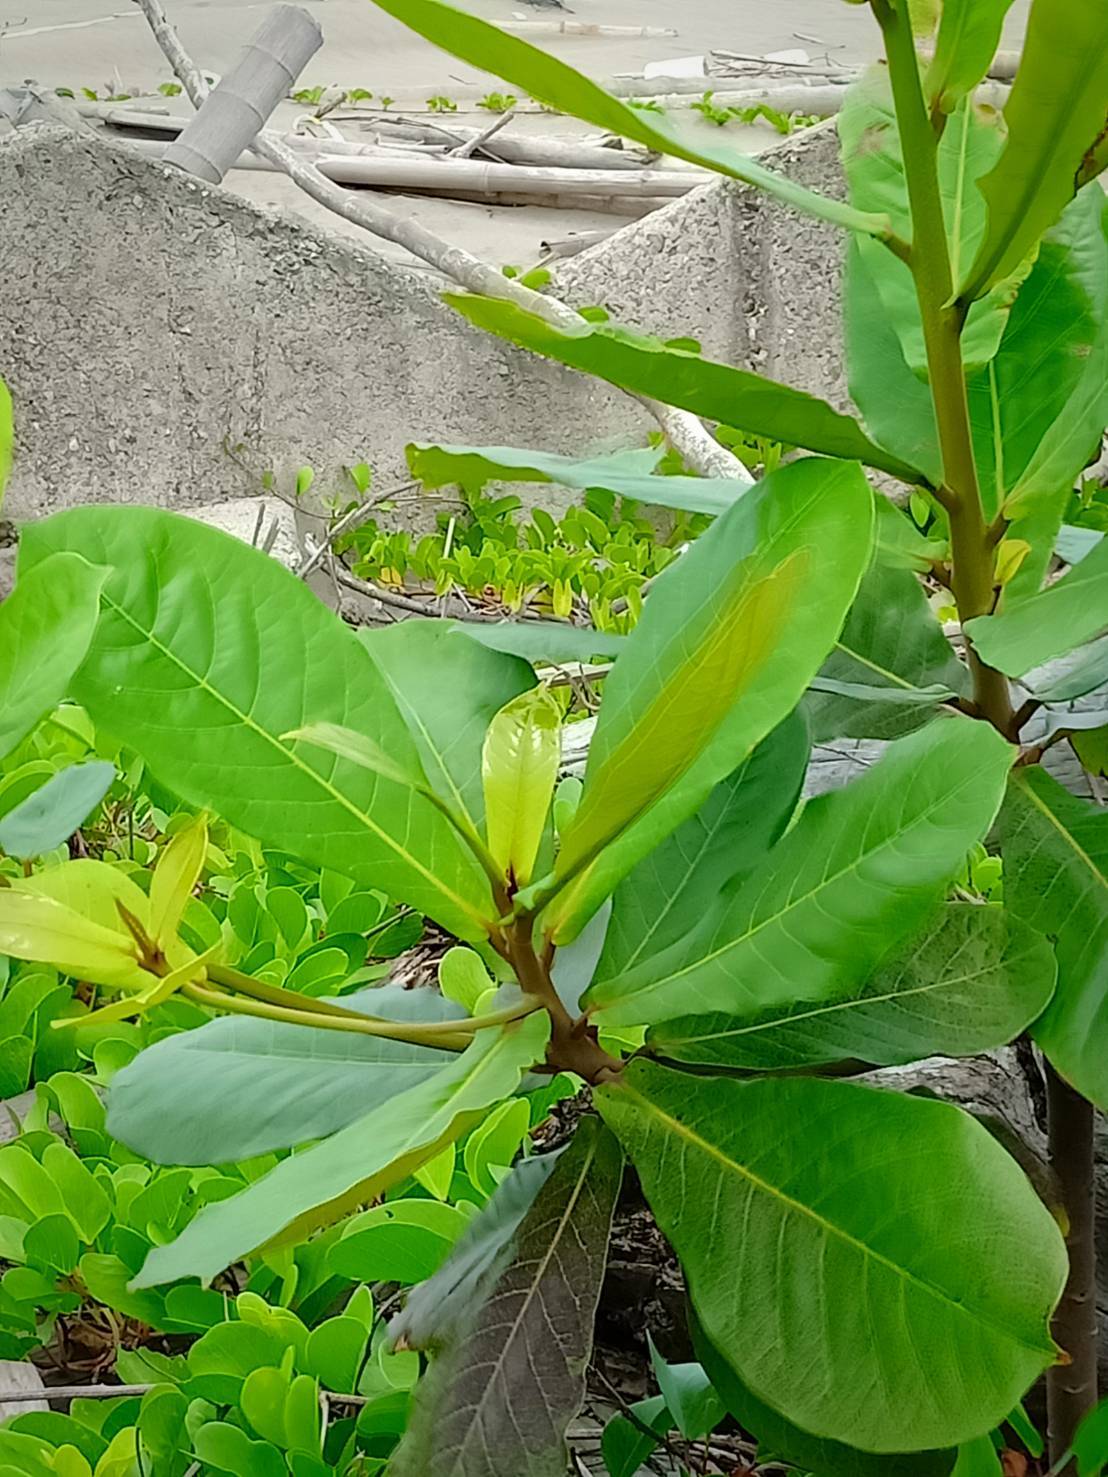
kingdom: Plantae
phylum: Tracheophyta
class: Magnoliopsida
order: Myrtales
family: Combretaceae
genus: Terminalia
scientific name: Terminalia catappa
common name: Tropical almond
